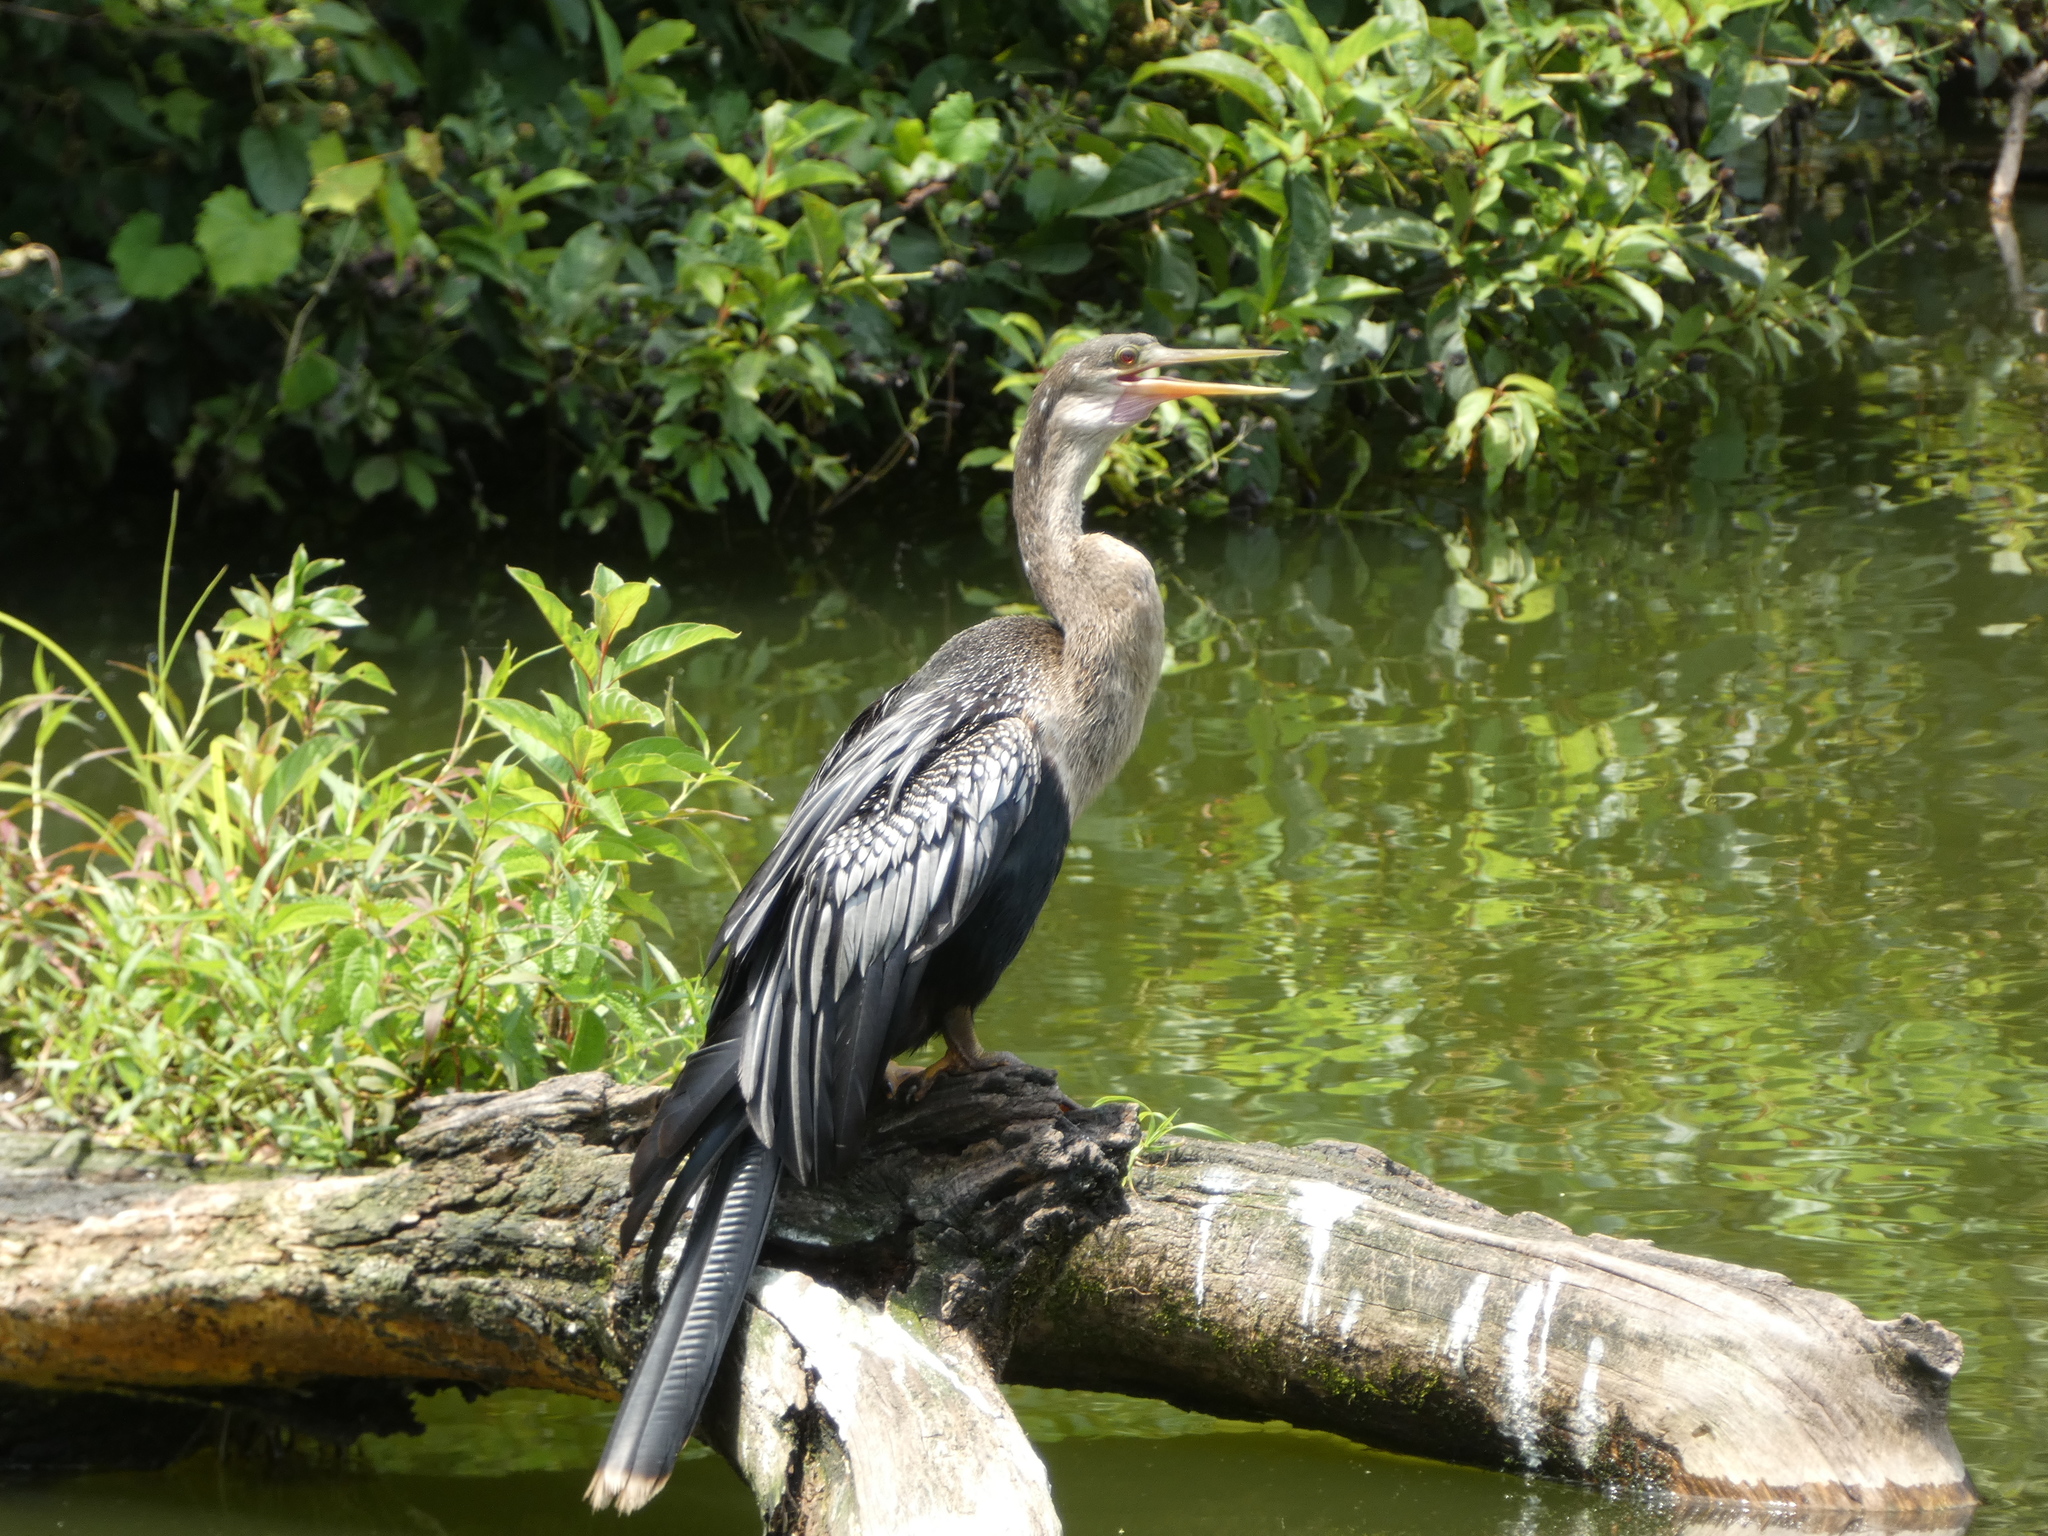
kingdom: Animalia
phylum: Chordata
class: Aves
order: Suliformes
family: Anhingidae
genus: Anhinga
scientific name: Anhinga anhinga
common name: Anhinga
